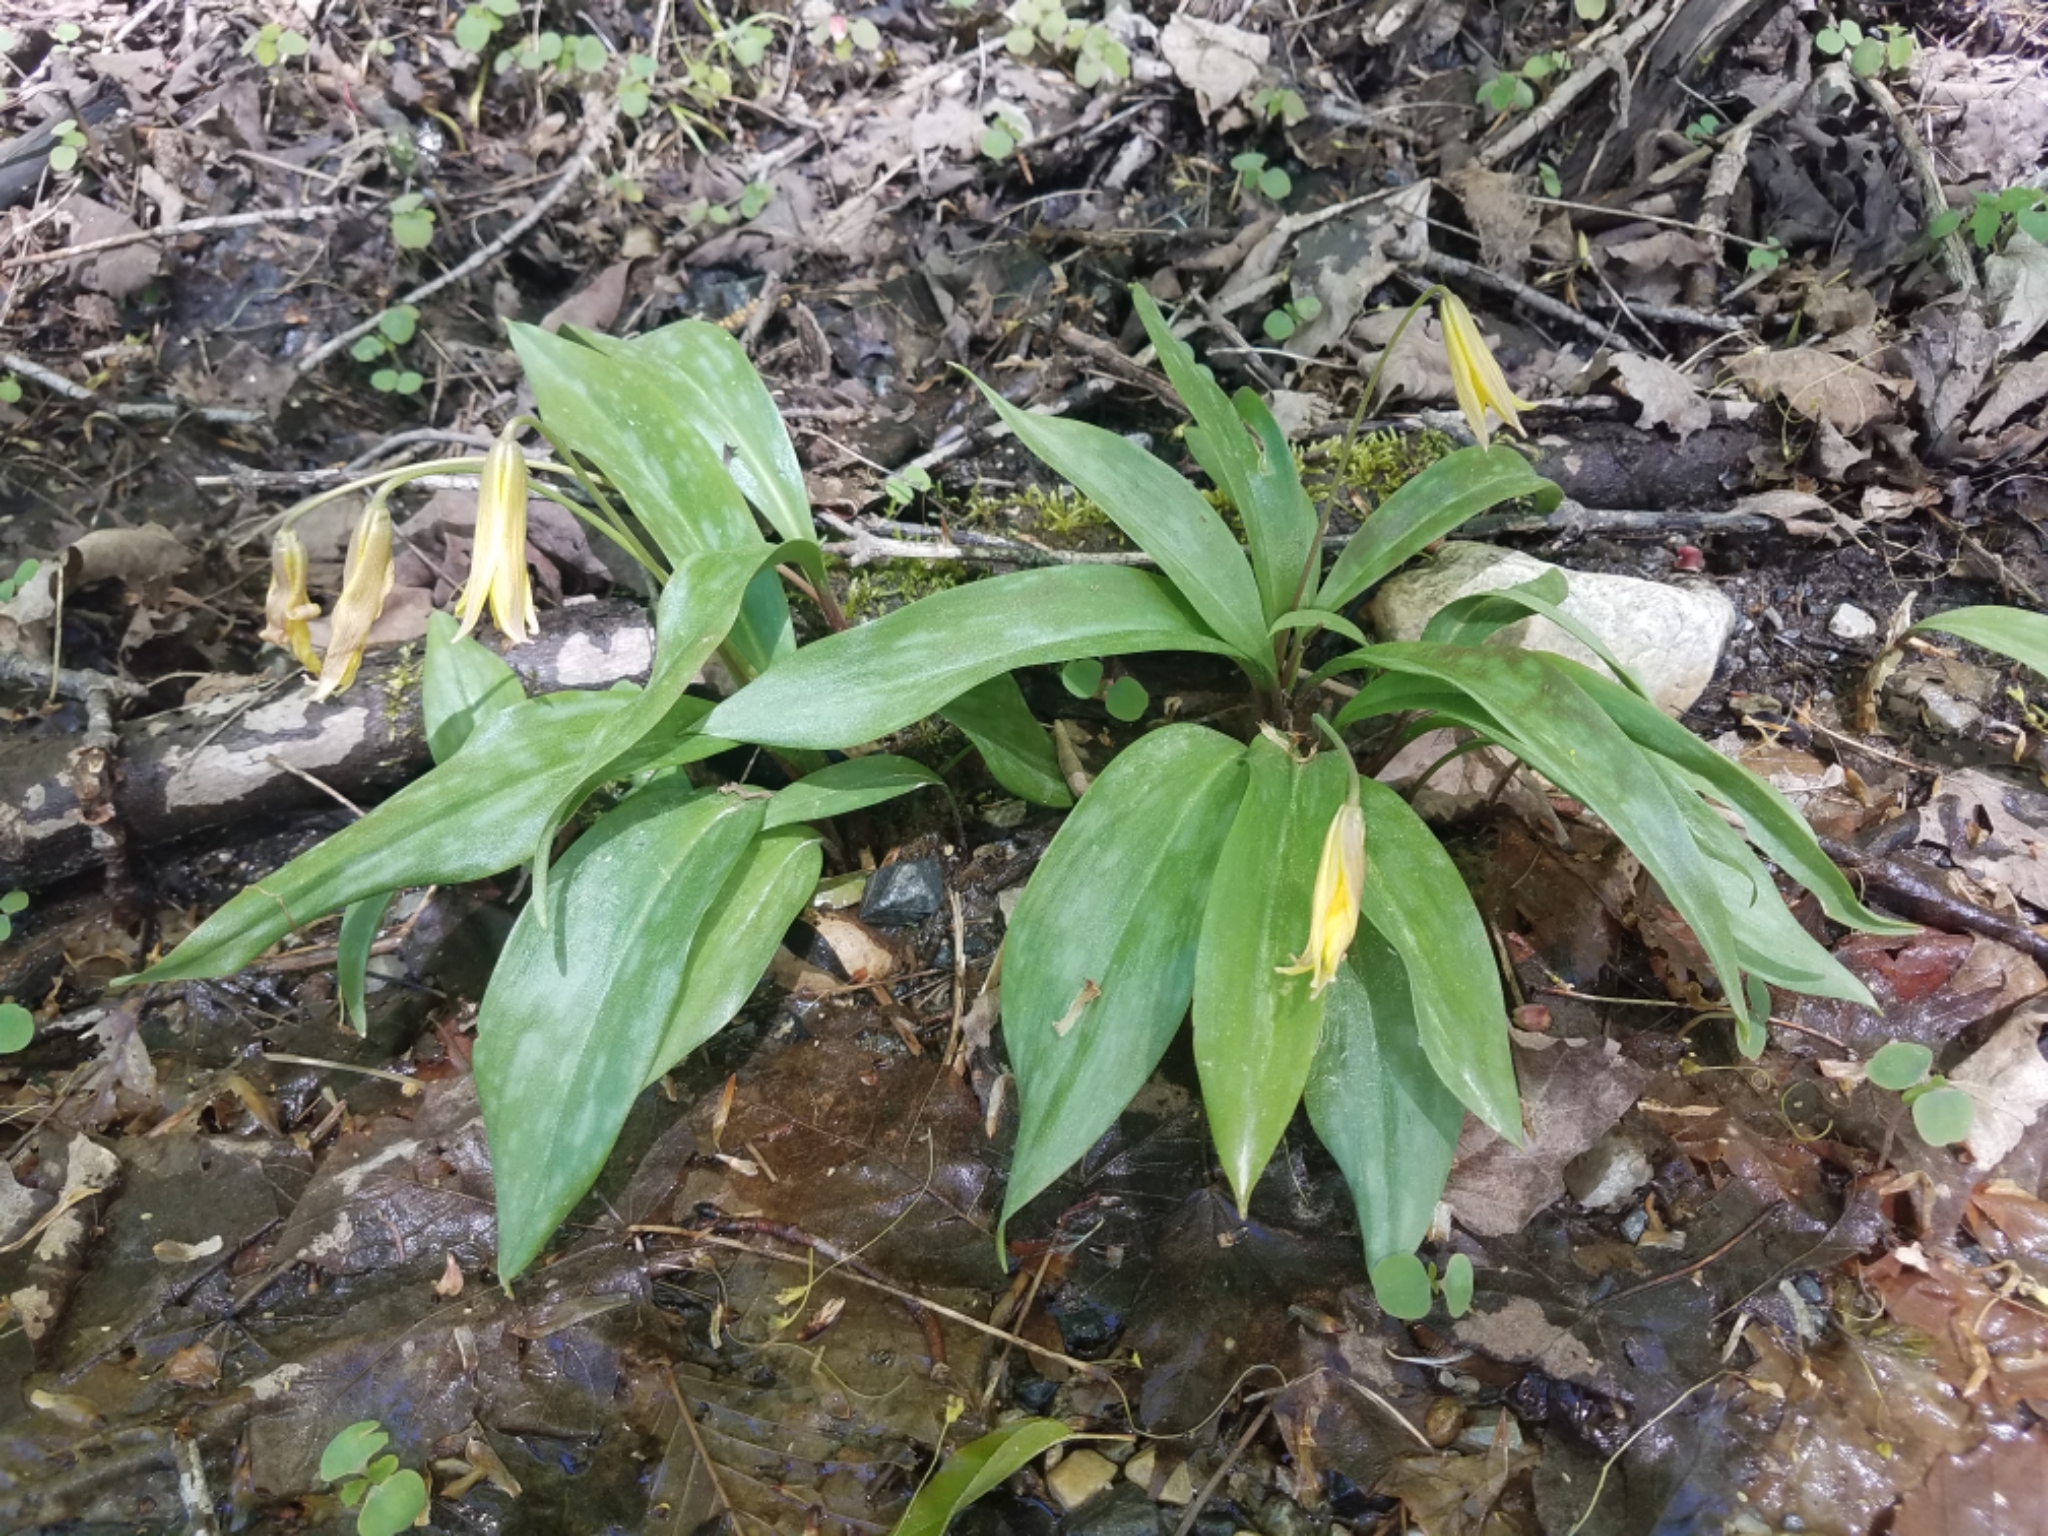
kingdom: Plantae
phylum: Tracheophyta
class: Liliopsida
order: Liliales
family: Liliaceae
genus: Erythronium
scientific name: Erythronium americanum
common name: Yellow adder's-tongue
